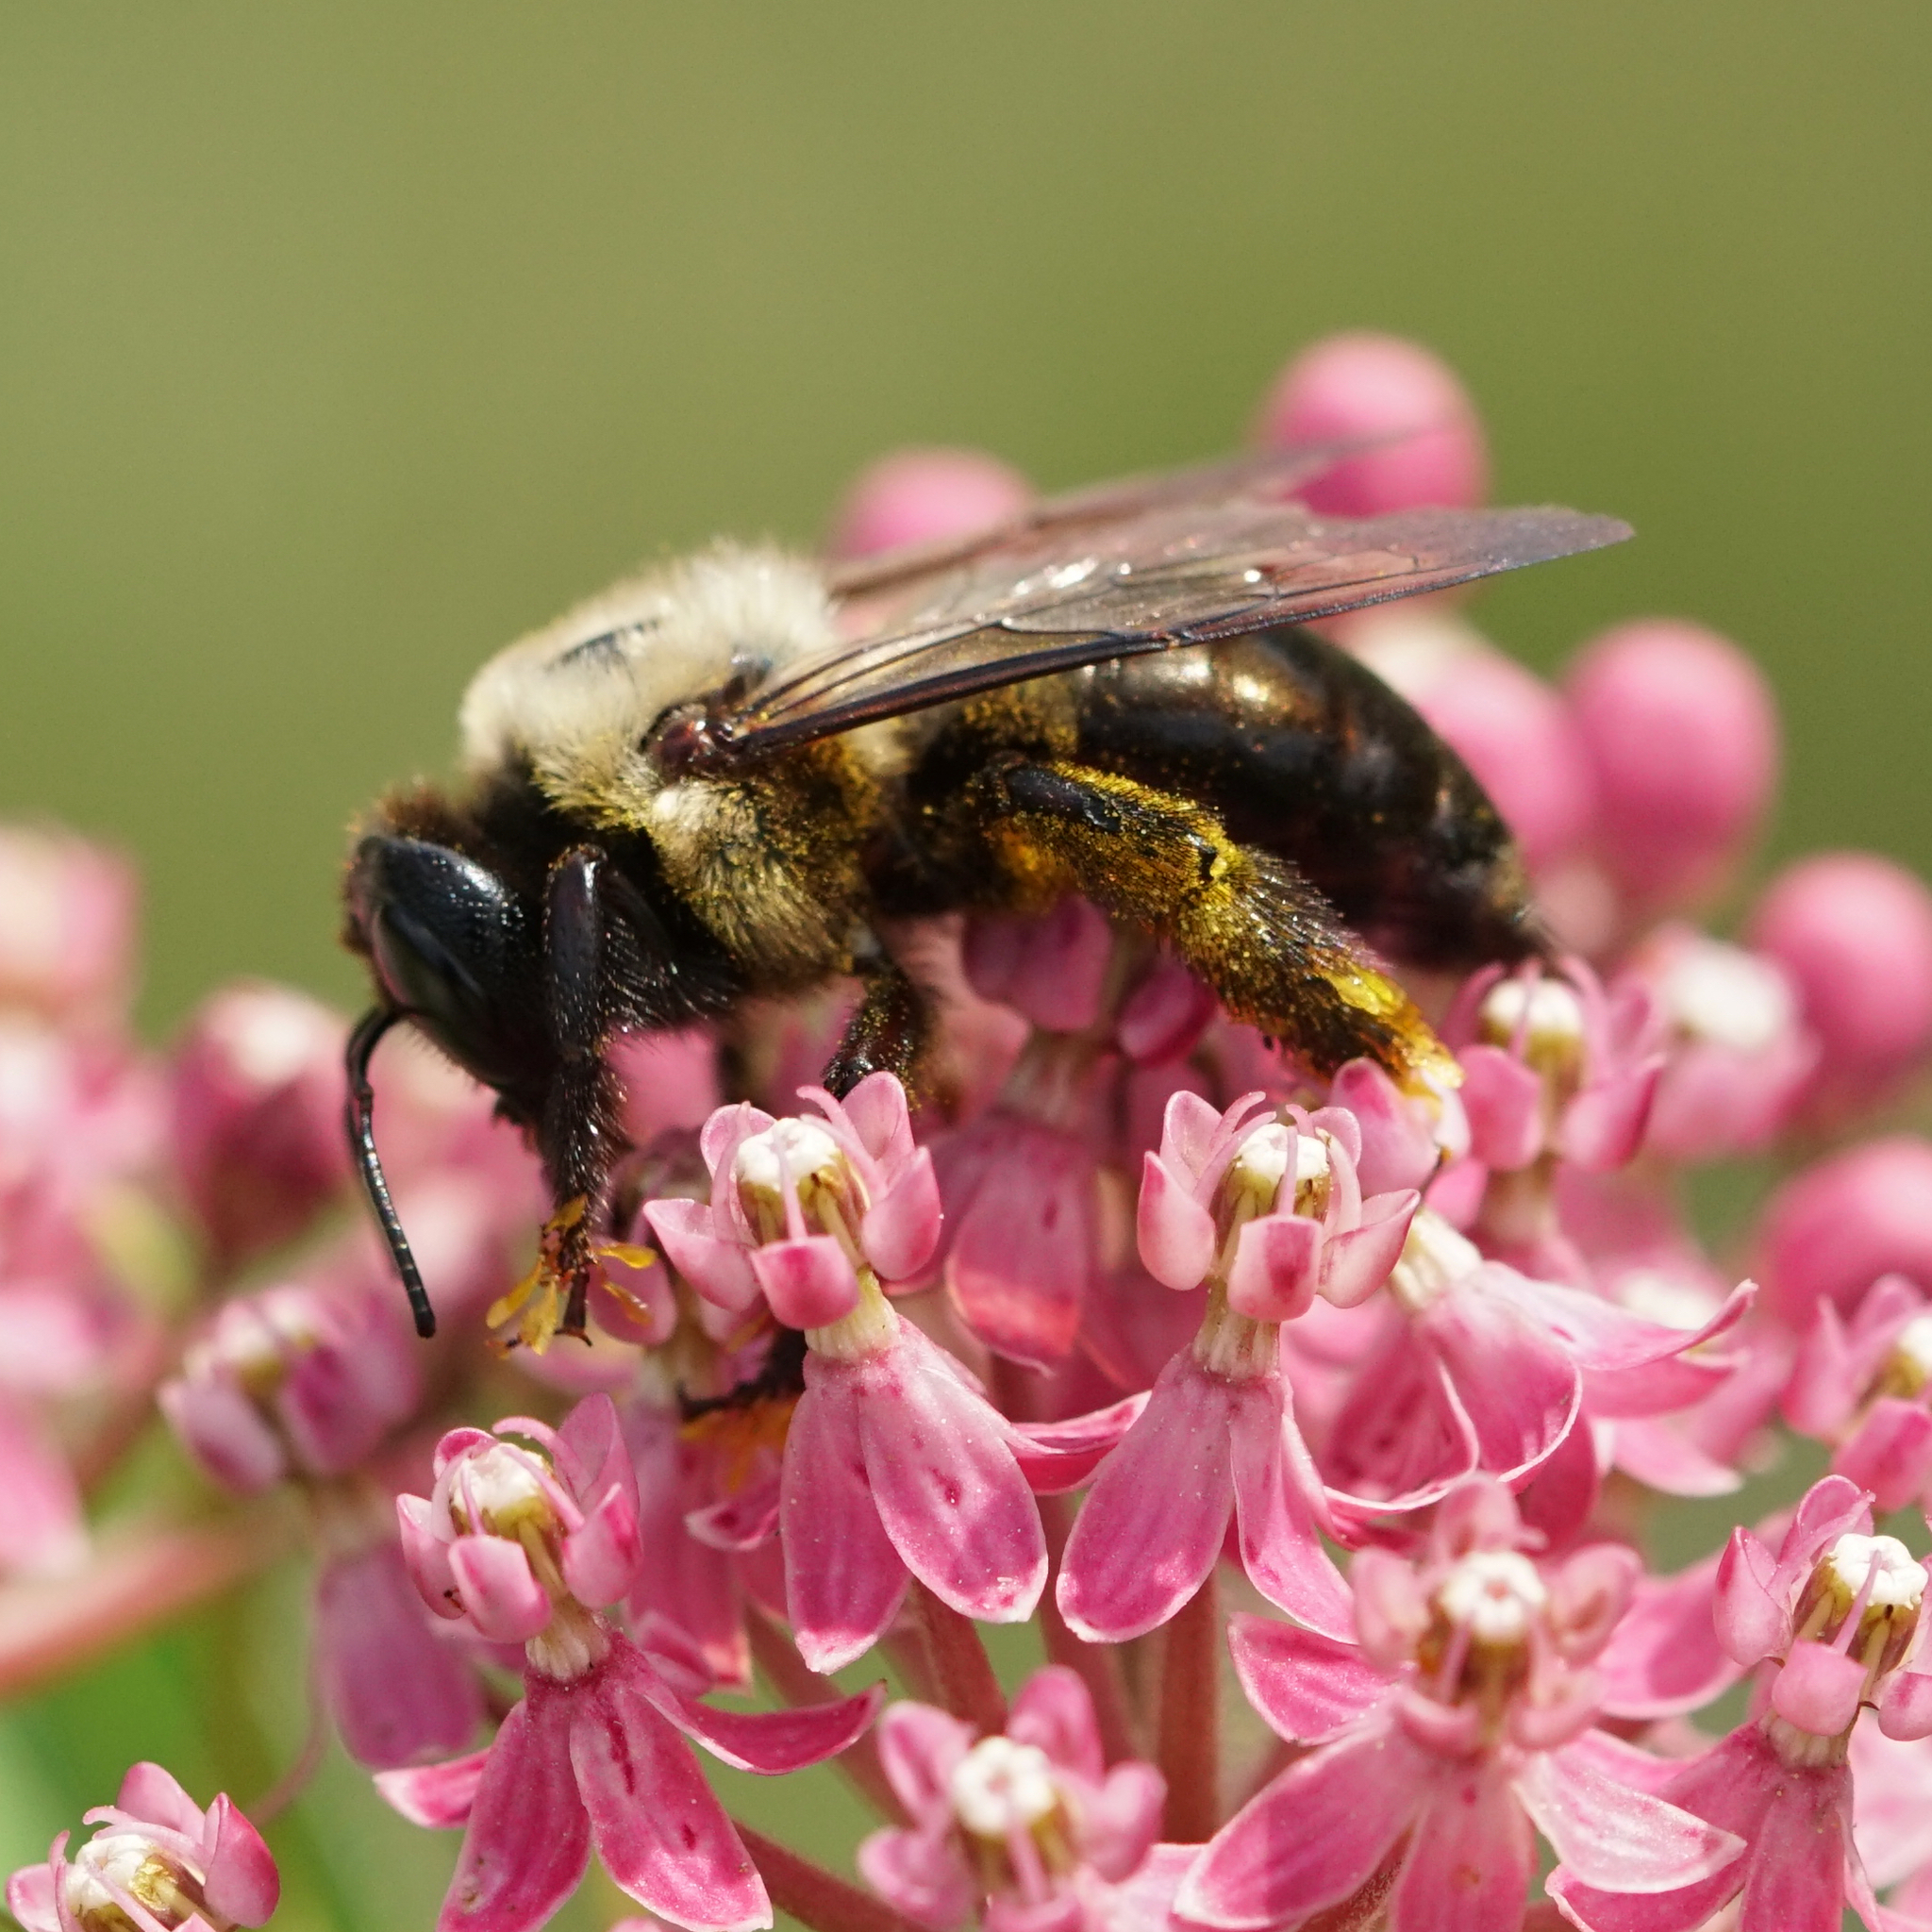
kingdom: Animalia
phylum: Arthropoda
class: Insecta
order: Hymenoptera
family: Apidae
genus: Xylocopa
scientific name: Xylocopa virginica
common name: Carpenter bee
